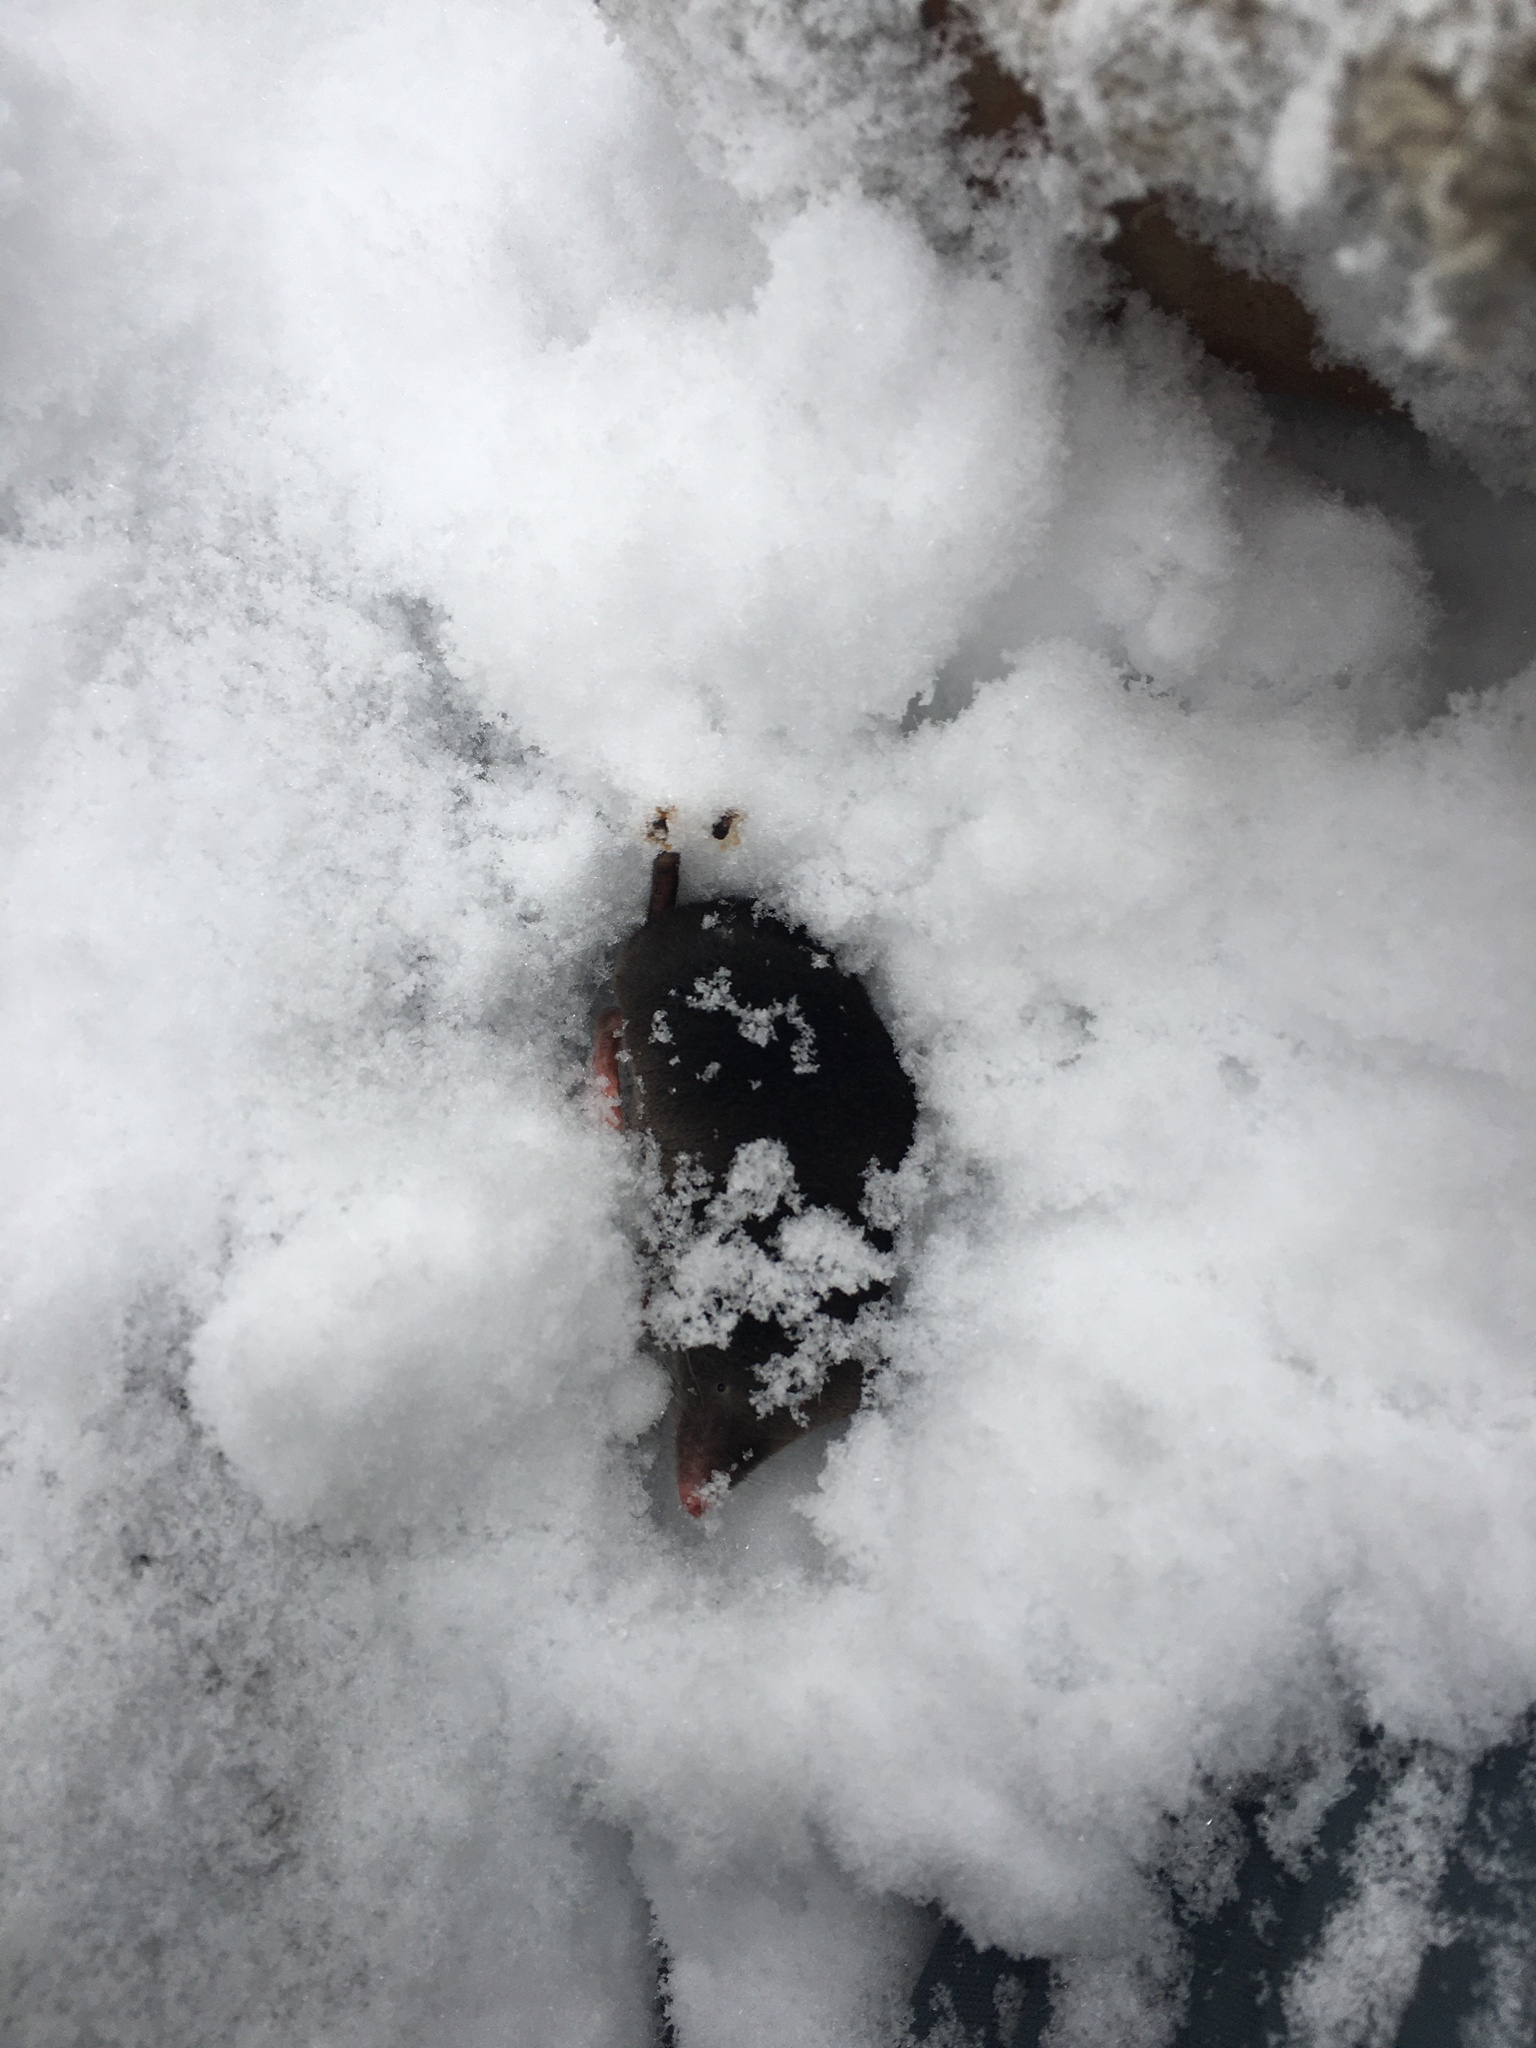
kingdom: Animalia
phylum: Chordata
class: Mammalia
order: Soricomorpha
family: Soricidae
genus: Blarina
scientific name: Blarina brevicauda
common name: Northern short-tailed shrew
